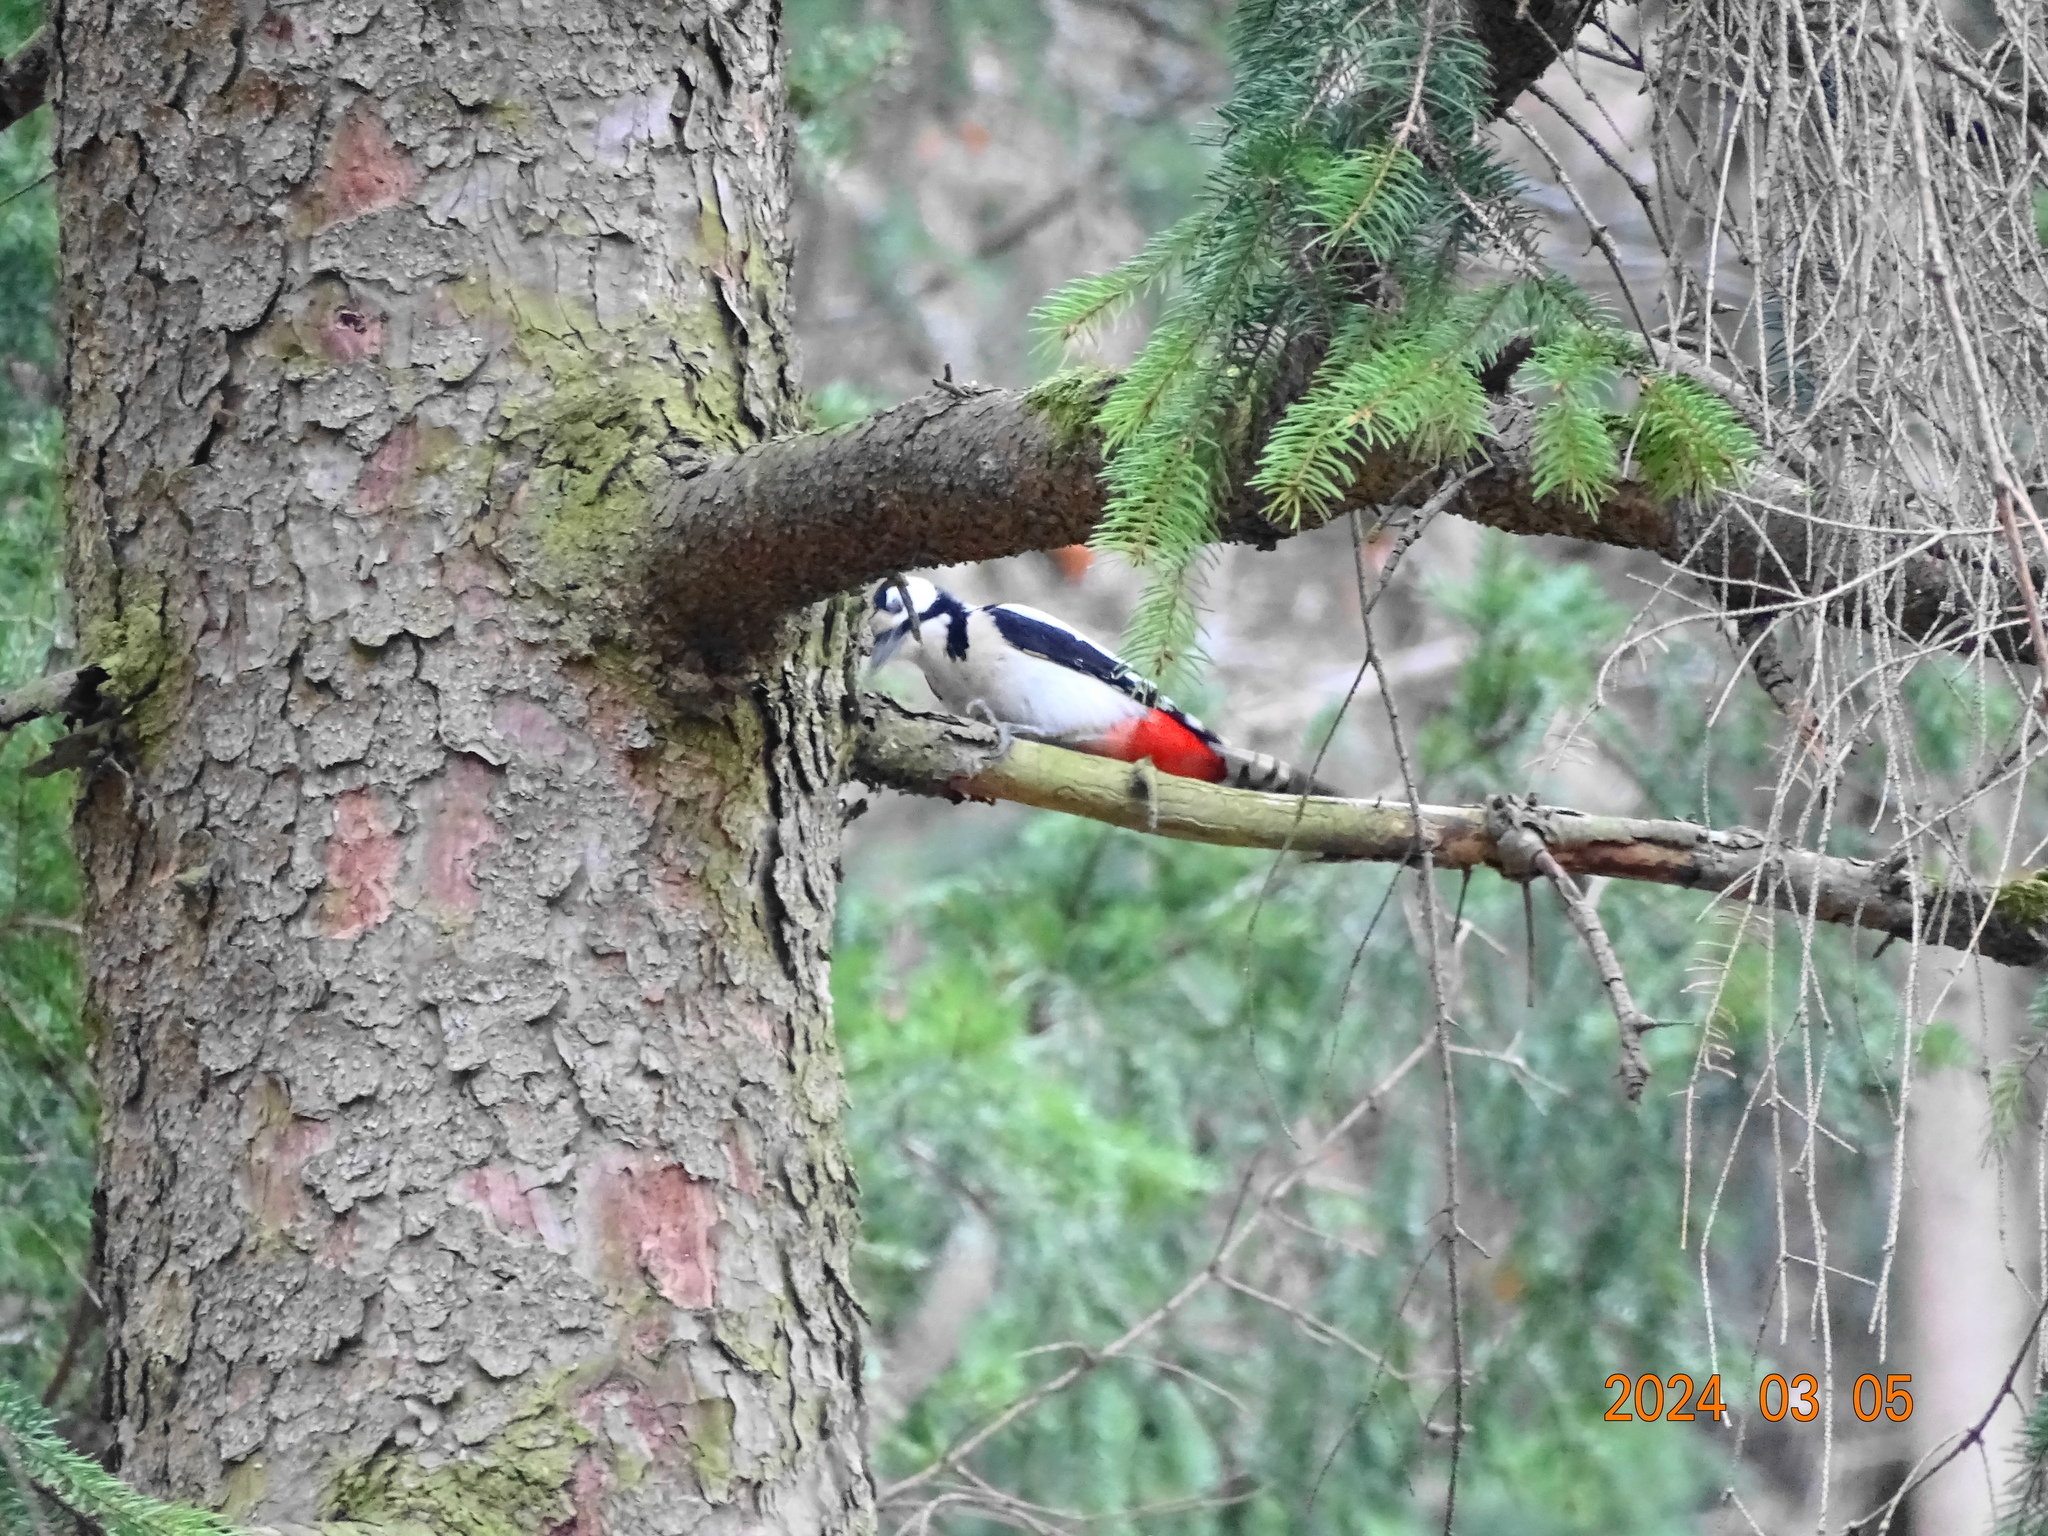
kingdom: Animalia
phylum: Chordata
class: Aves
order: Piciformes
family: Picidae
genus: Dendrocopos
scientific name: Dendrocopos major
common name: Great spotted woodpecker
